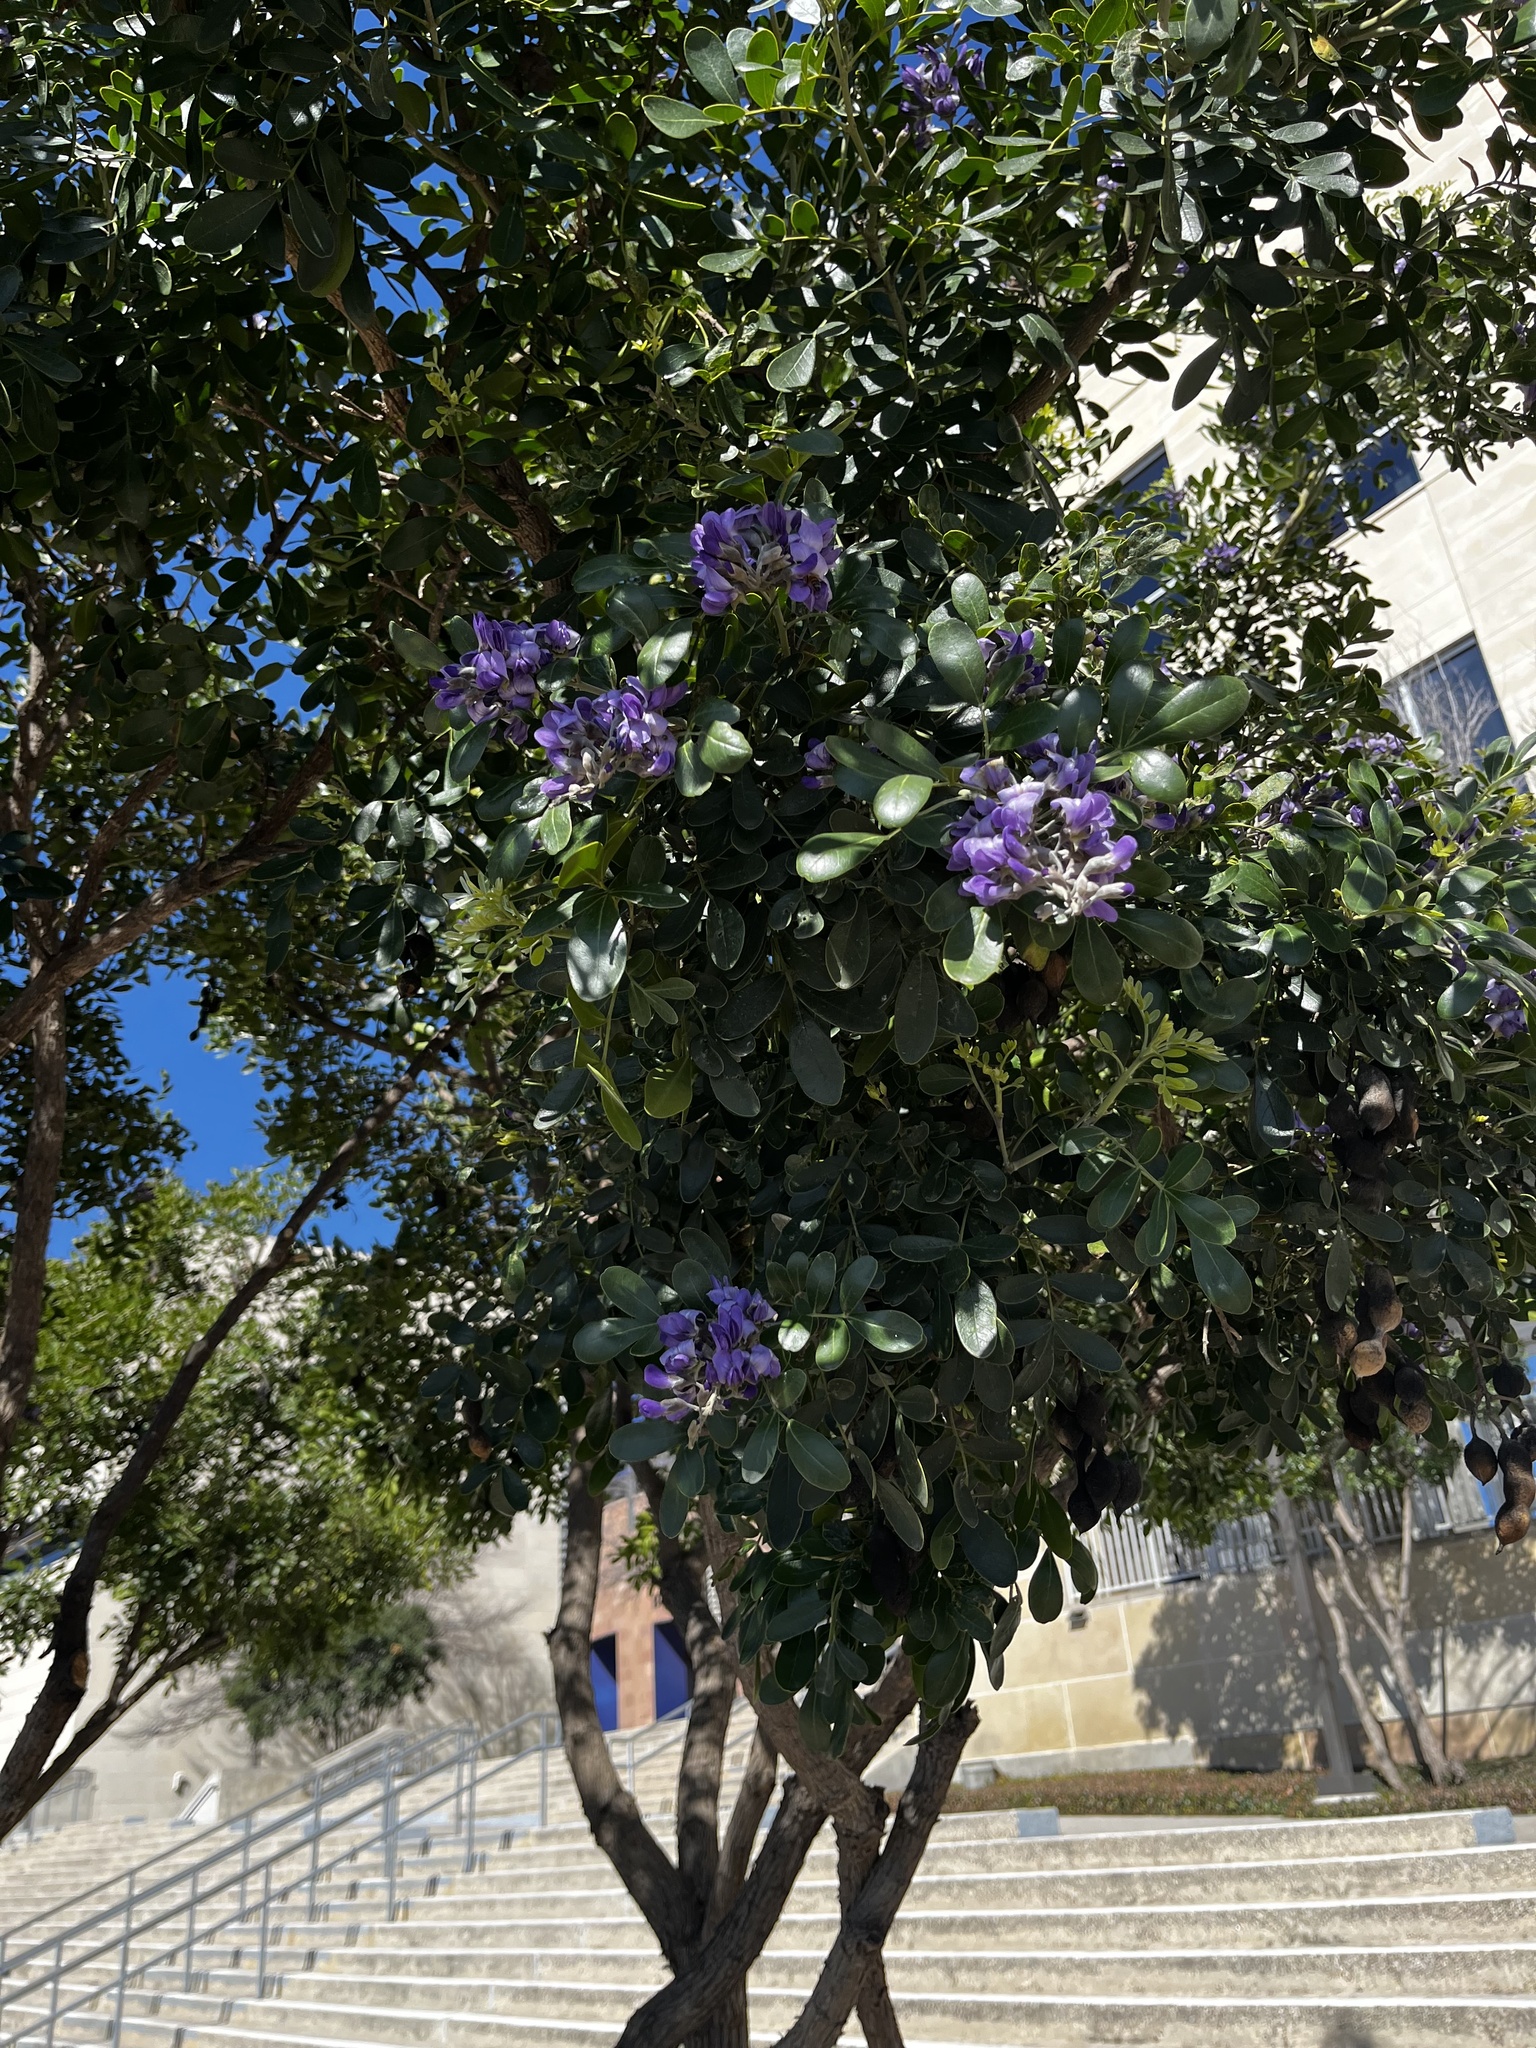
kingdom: Plantae
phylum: Tracheophyta
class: Magnoliopsida
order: Fabales
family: Fabaceae
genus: Dermatophyllum
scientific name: Dermatophyllum secundiflorum
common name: Texas-mountain-laurel
